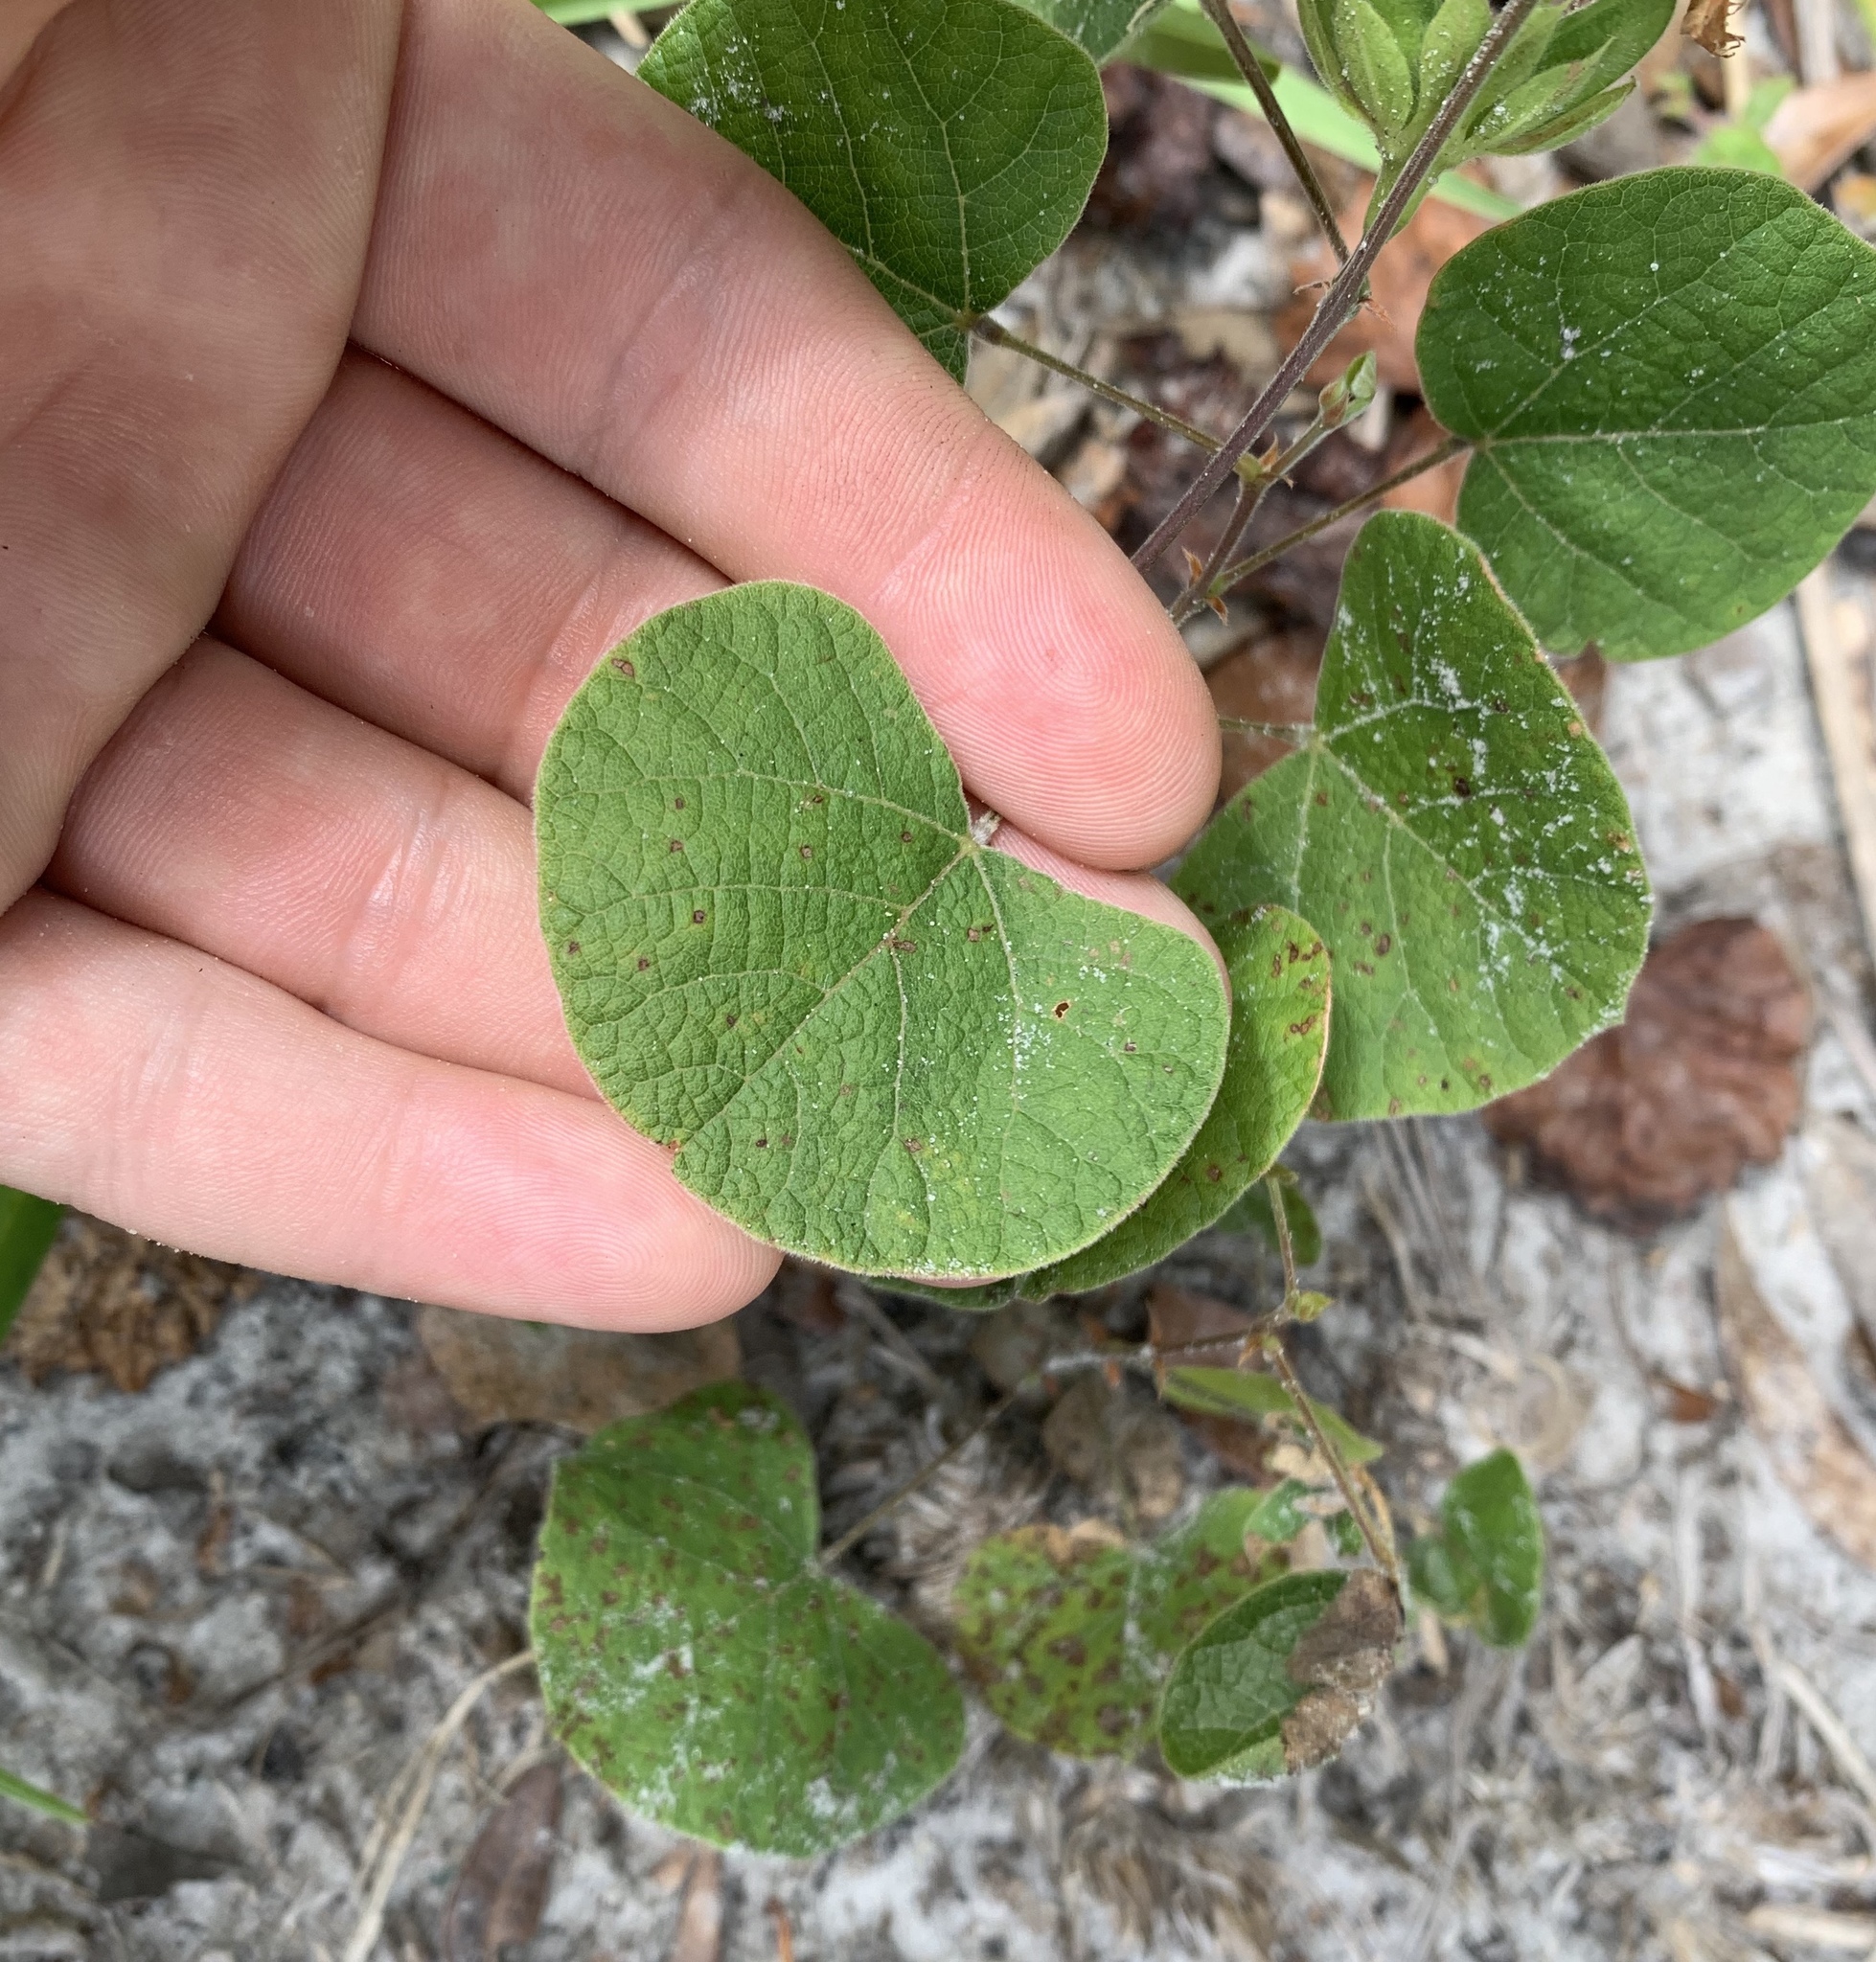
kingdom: Plantae
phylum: Tracheophyta
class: Magnoliopsida
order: Fabales
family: Fabaceae
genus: Rhynchosia
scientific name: Rhynchosia reniformis
